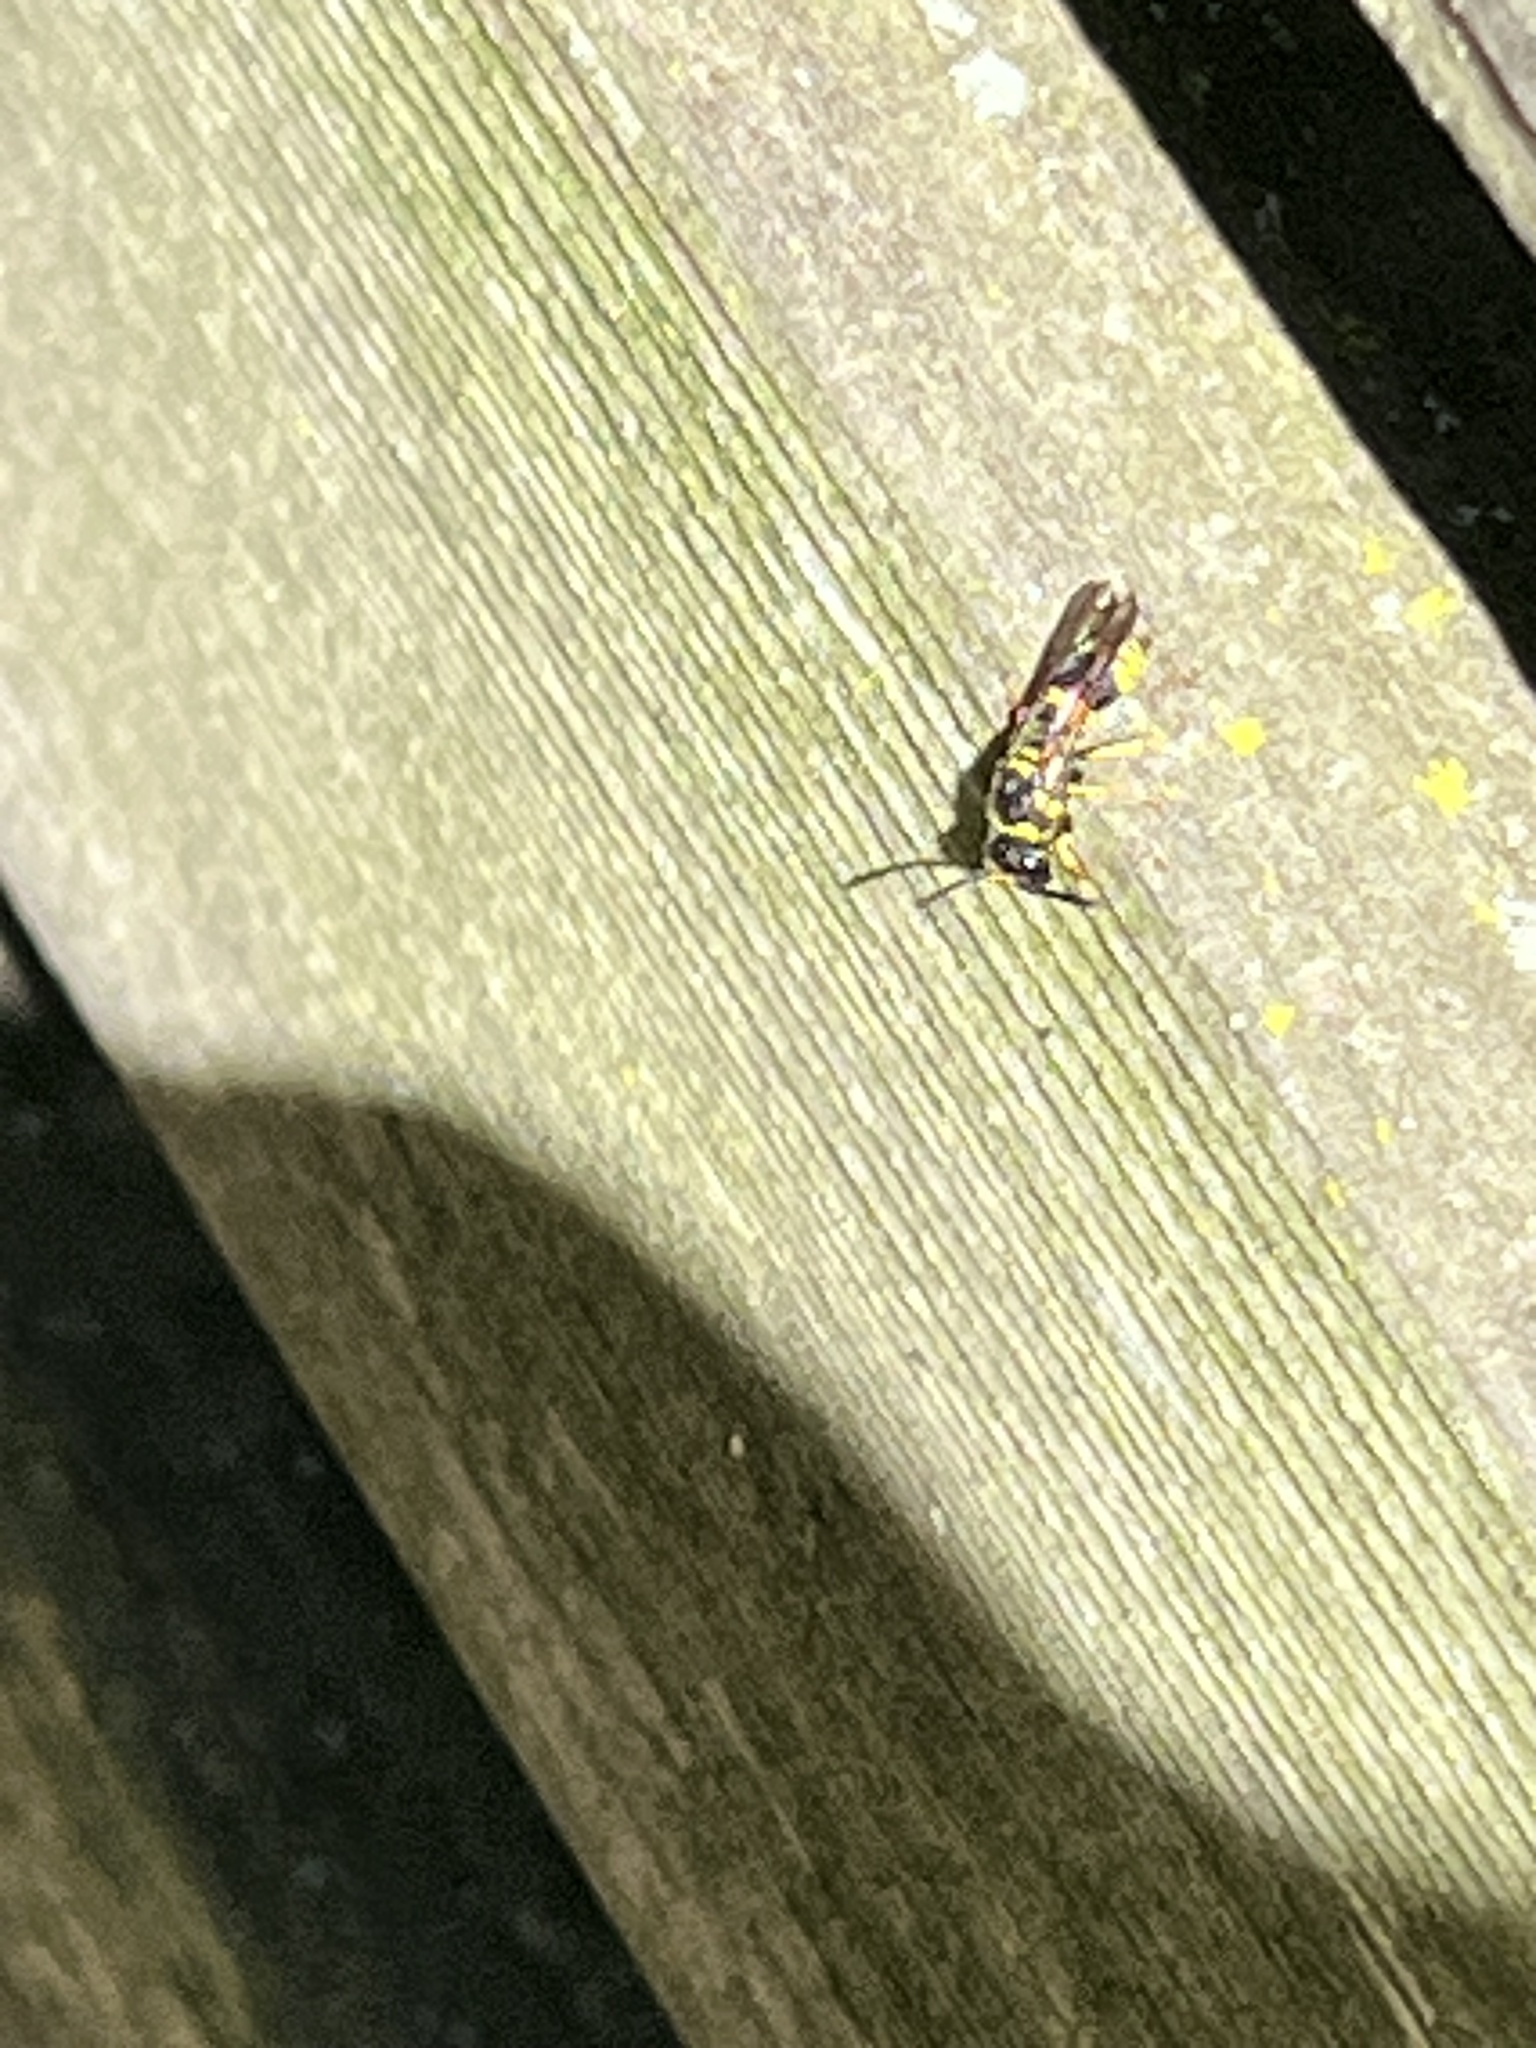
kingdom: Animalia
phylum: Arthropoda
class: Insecta
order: Hymenoptera
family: Vespidae
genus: Ancistrocerus
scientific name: Ancistrocerus gazella
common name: European tube wasp
